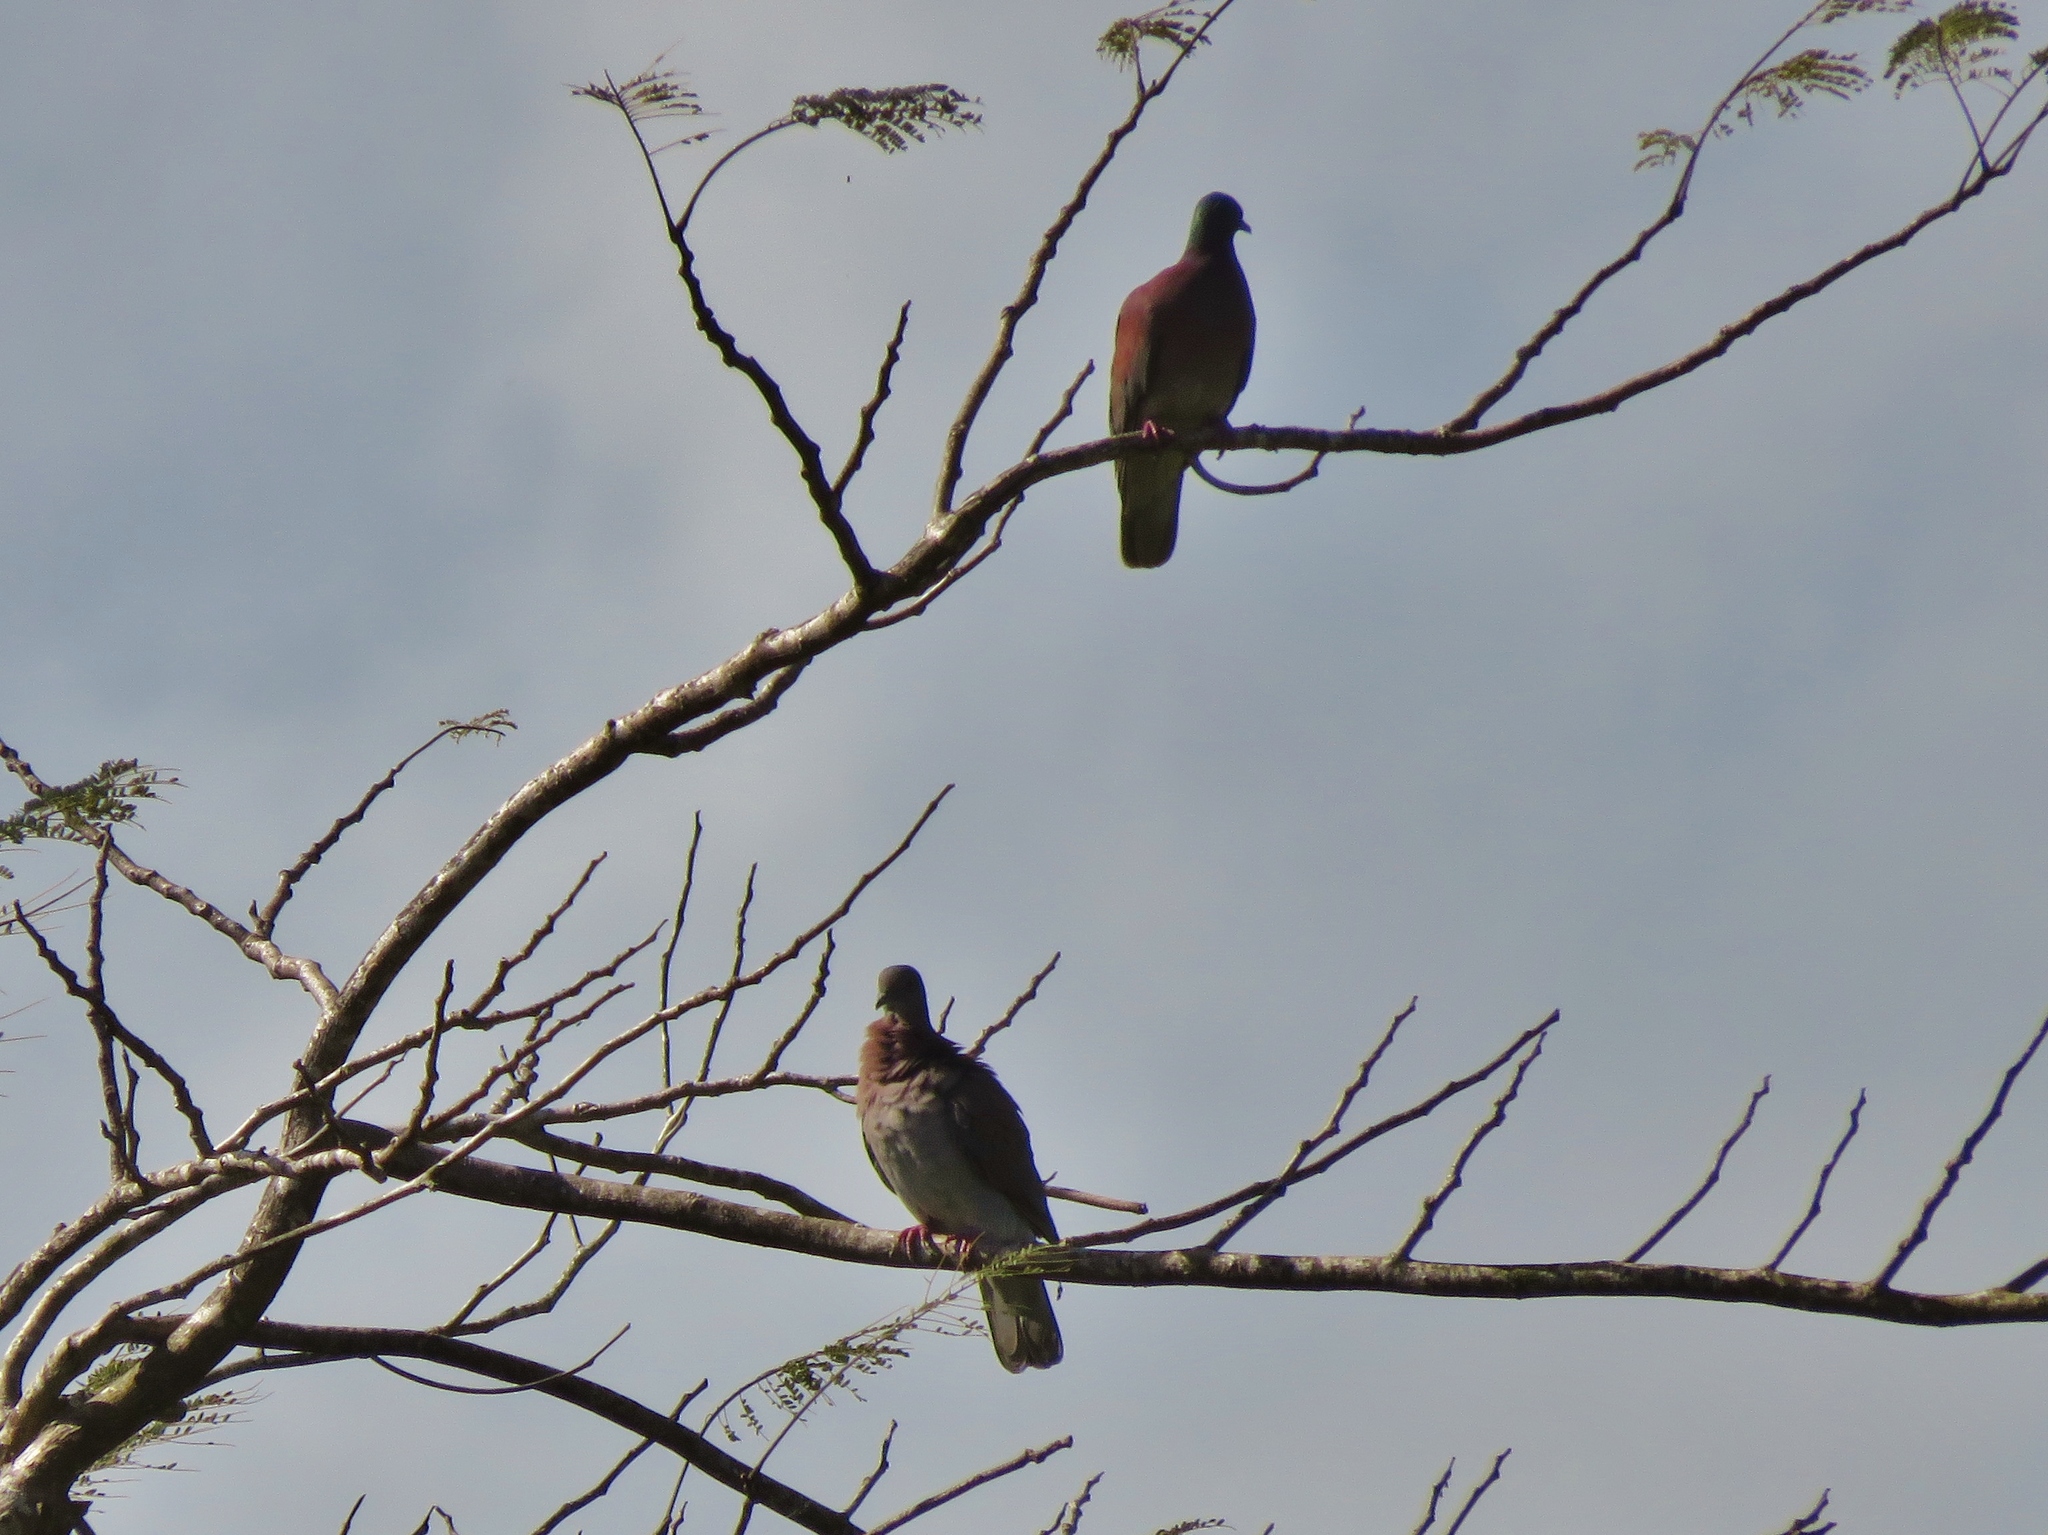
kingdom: Animalia
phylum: Chordata
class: Aves
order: Columbiformes
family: Columbidae
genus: Patagioenas
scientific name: Patagioenas cayennensis
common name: Pale-vented pigeon
